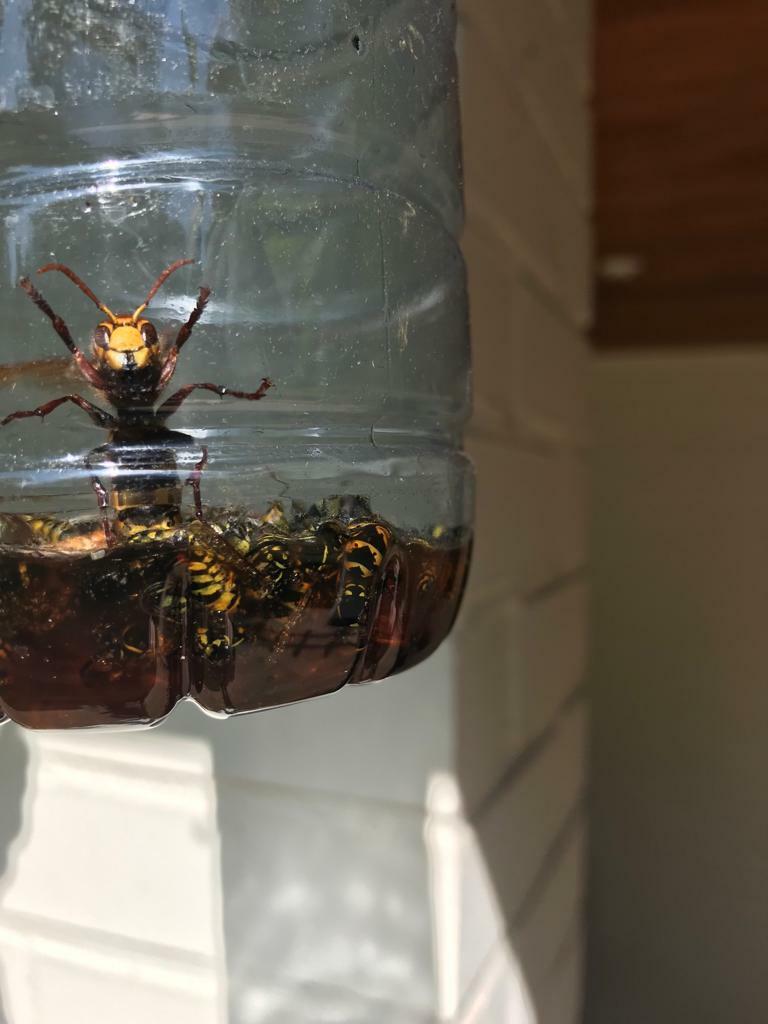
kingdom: Animalia
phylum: Arthropoda
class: Insecta
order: Hymenoptera
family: Vespidae
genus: Vespa
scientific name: Vespa crabro
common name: Hornet
